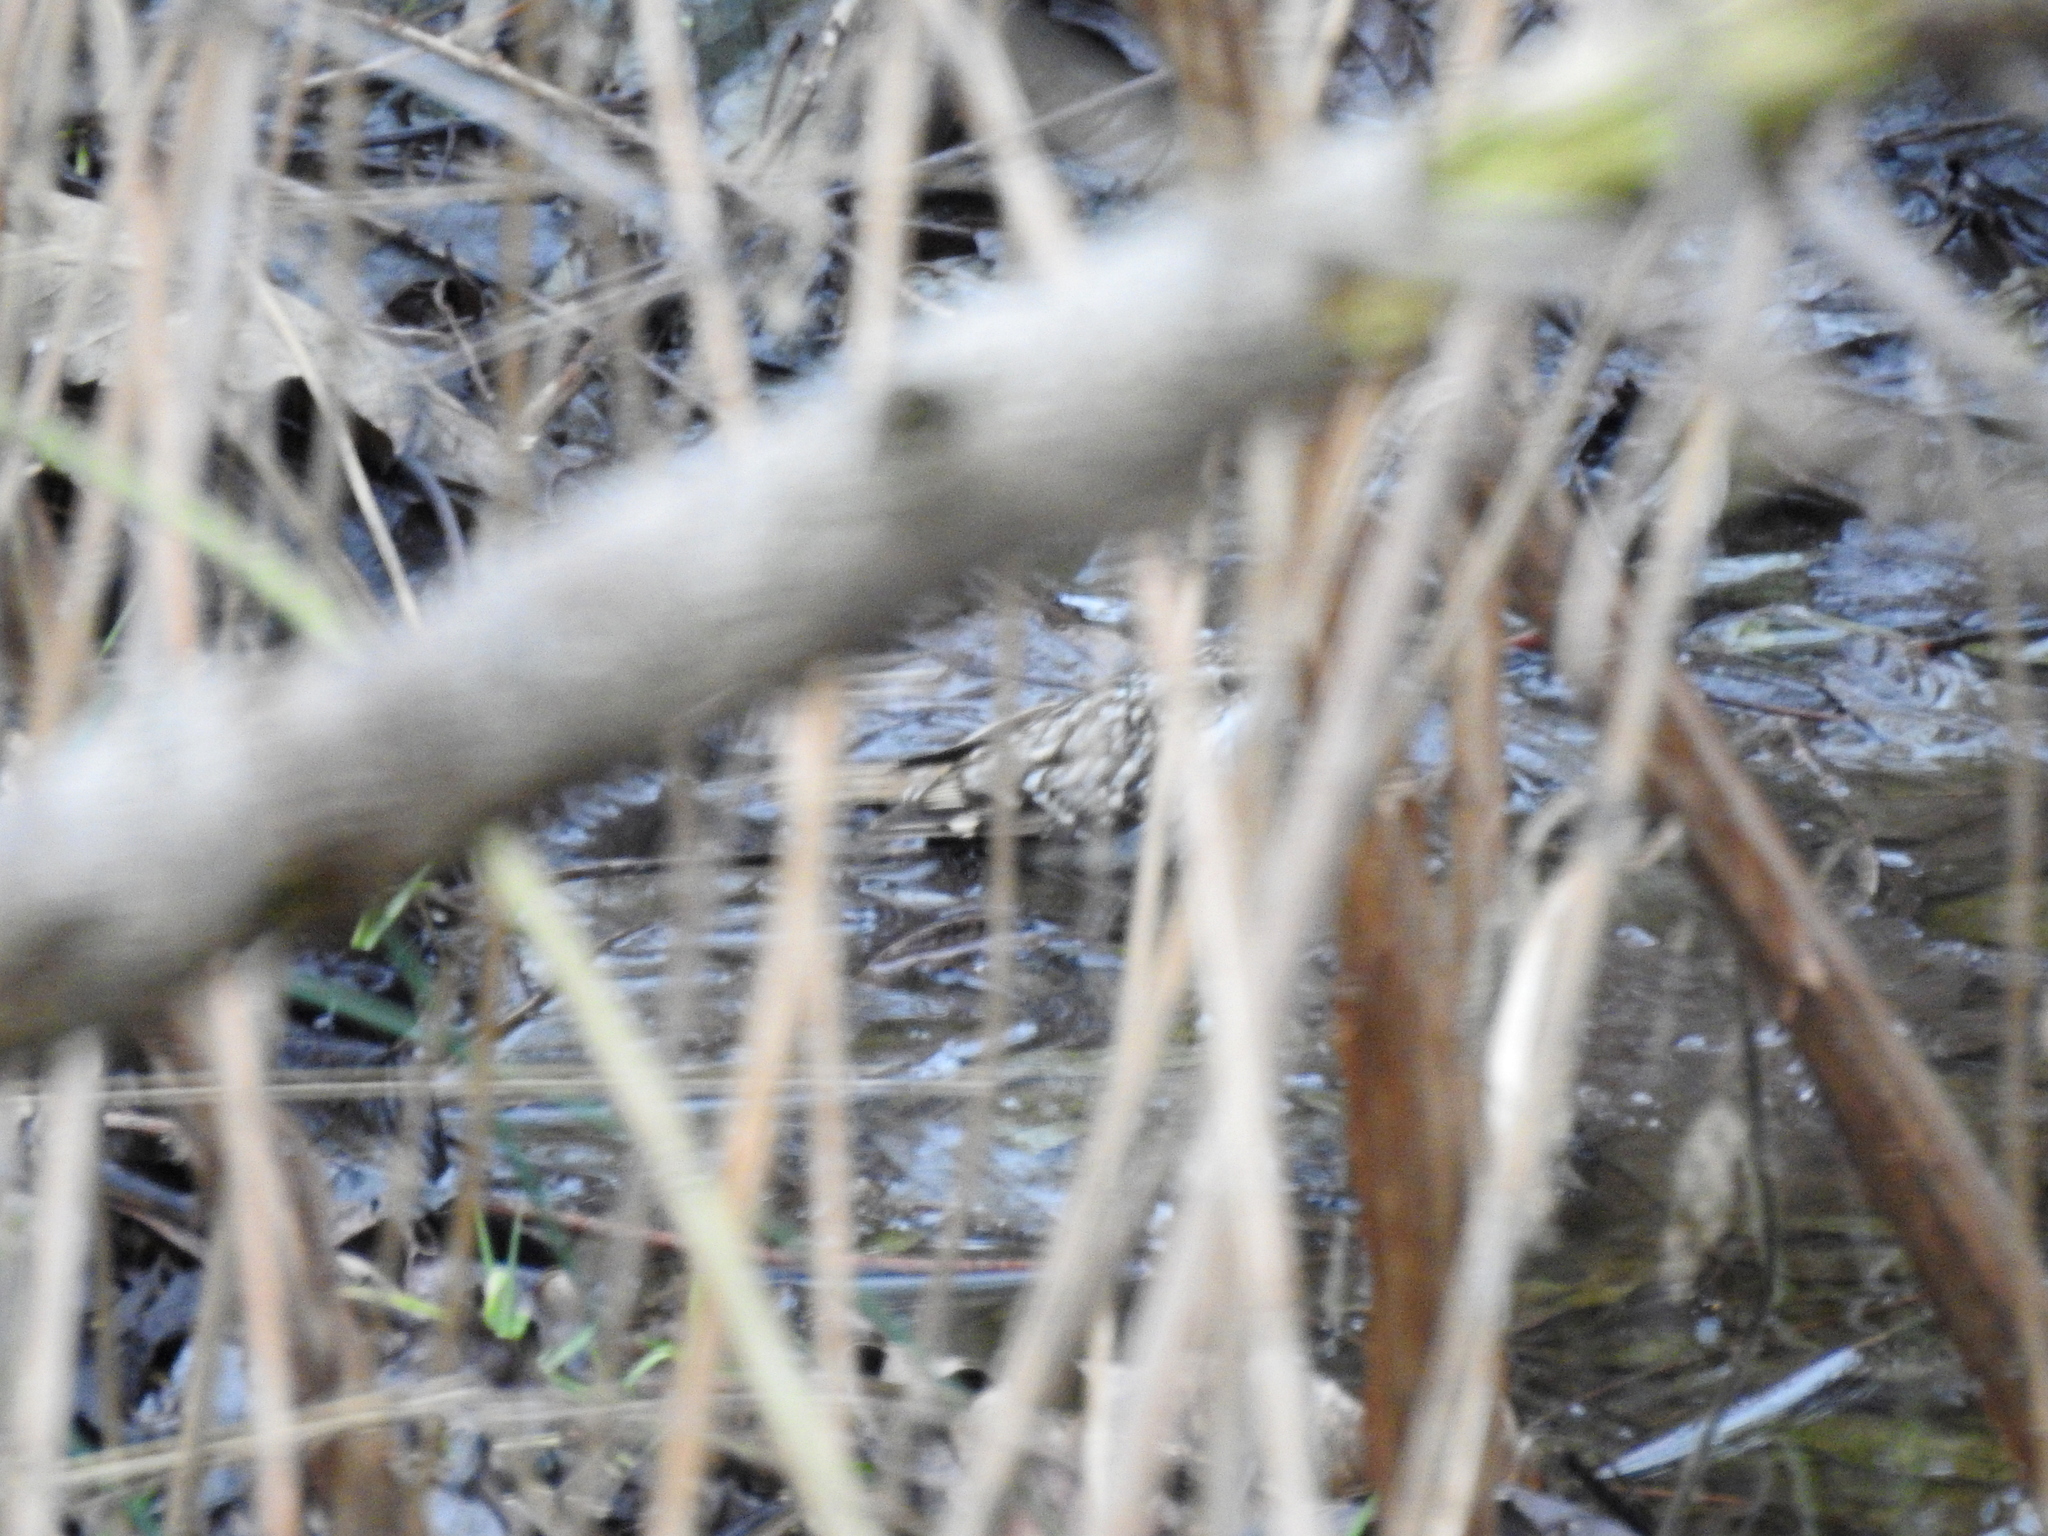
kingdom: Animalia
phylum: Chordata
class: Aves
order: Passeriformes
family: Certhiidae
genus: Certhia
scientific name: Certhia
